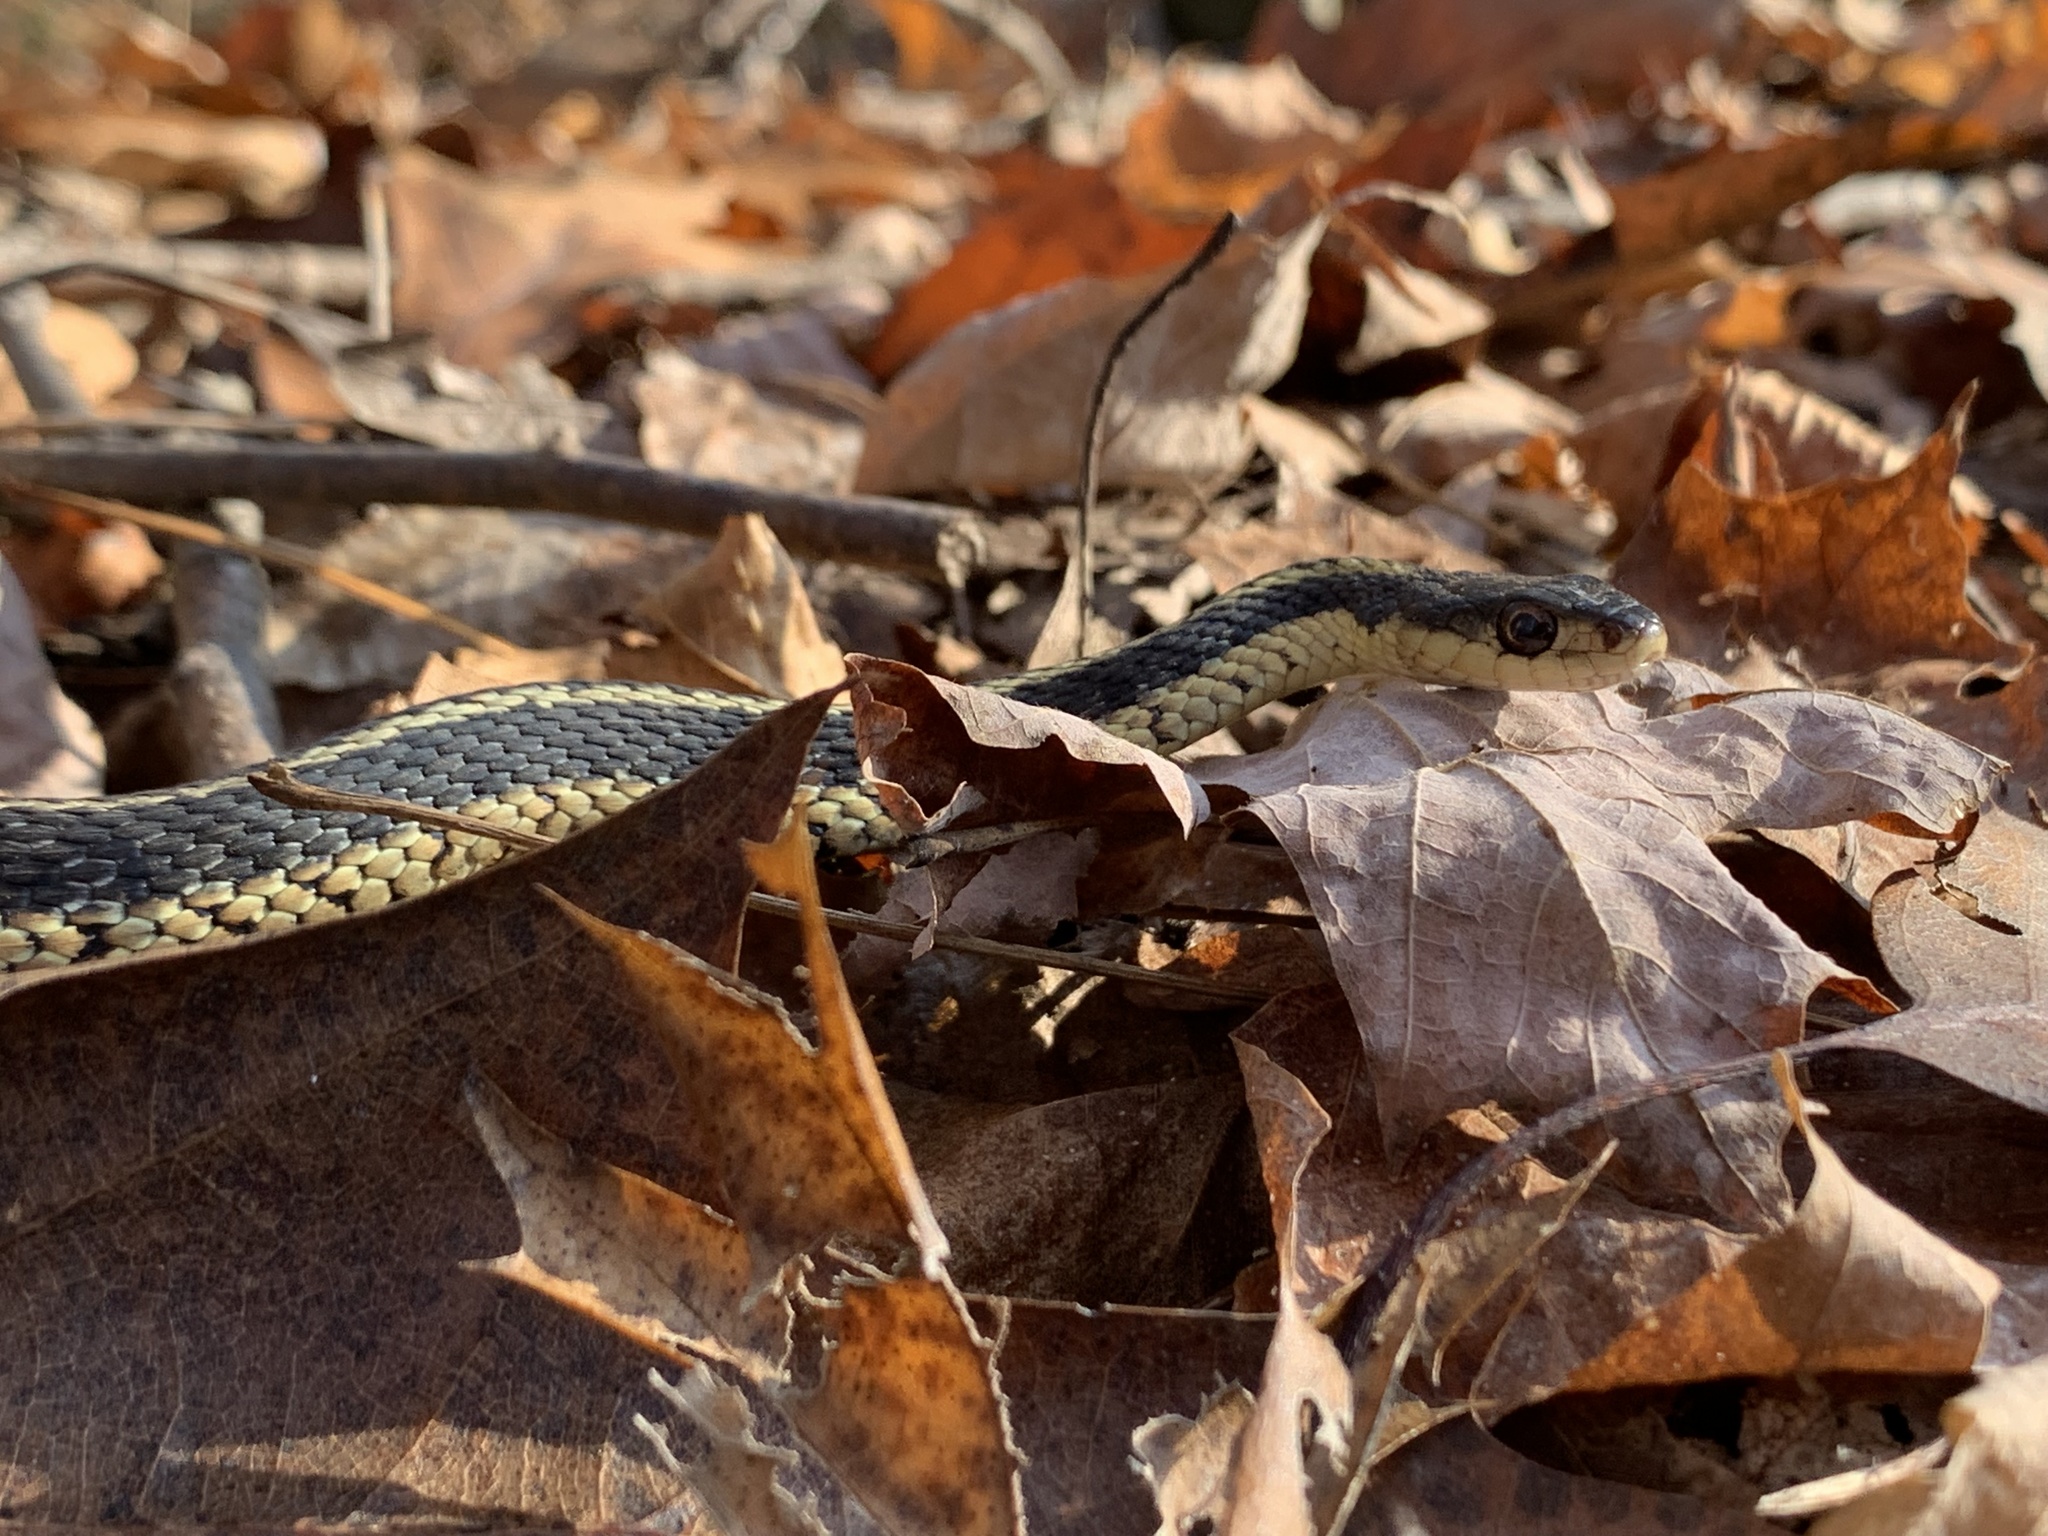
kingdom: Animalia
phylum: Chordata
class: Squamata
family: Colubridae
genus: Thamnophis
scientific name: Thamnophis sirtalis
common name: Common garter snake
